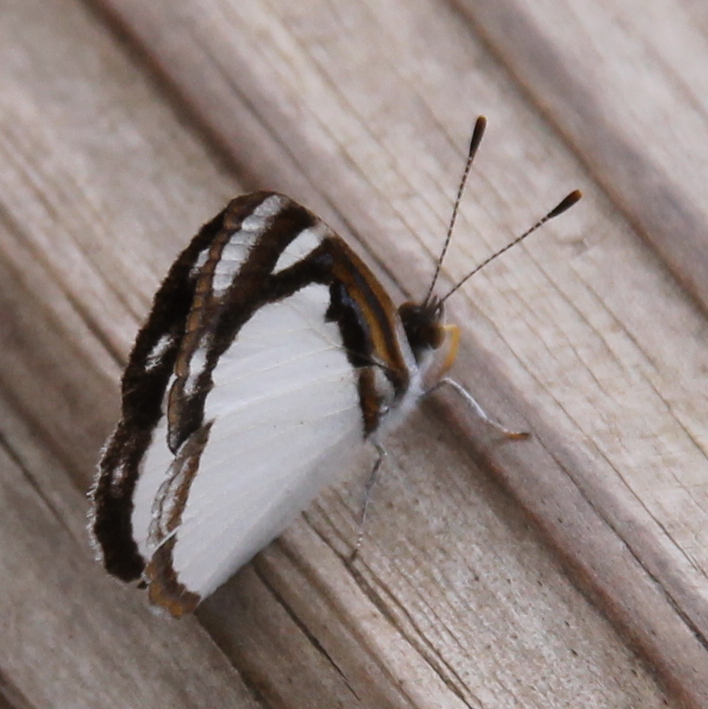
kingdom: Animalia
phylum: Arthropoda
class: Insecta
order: Lepidoptera
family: Nymphalidae
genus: Dynamine
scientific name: Dynamine agacles
